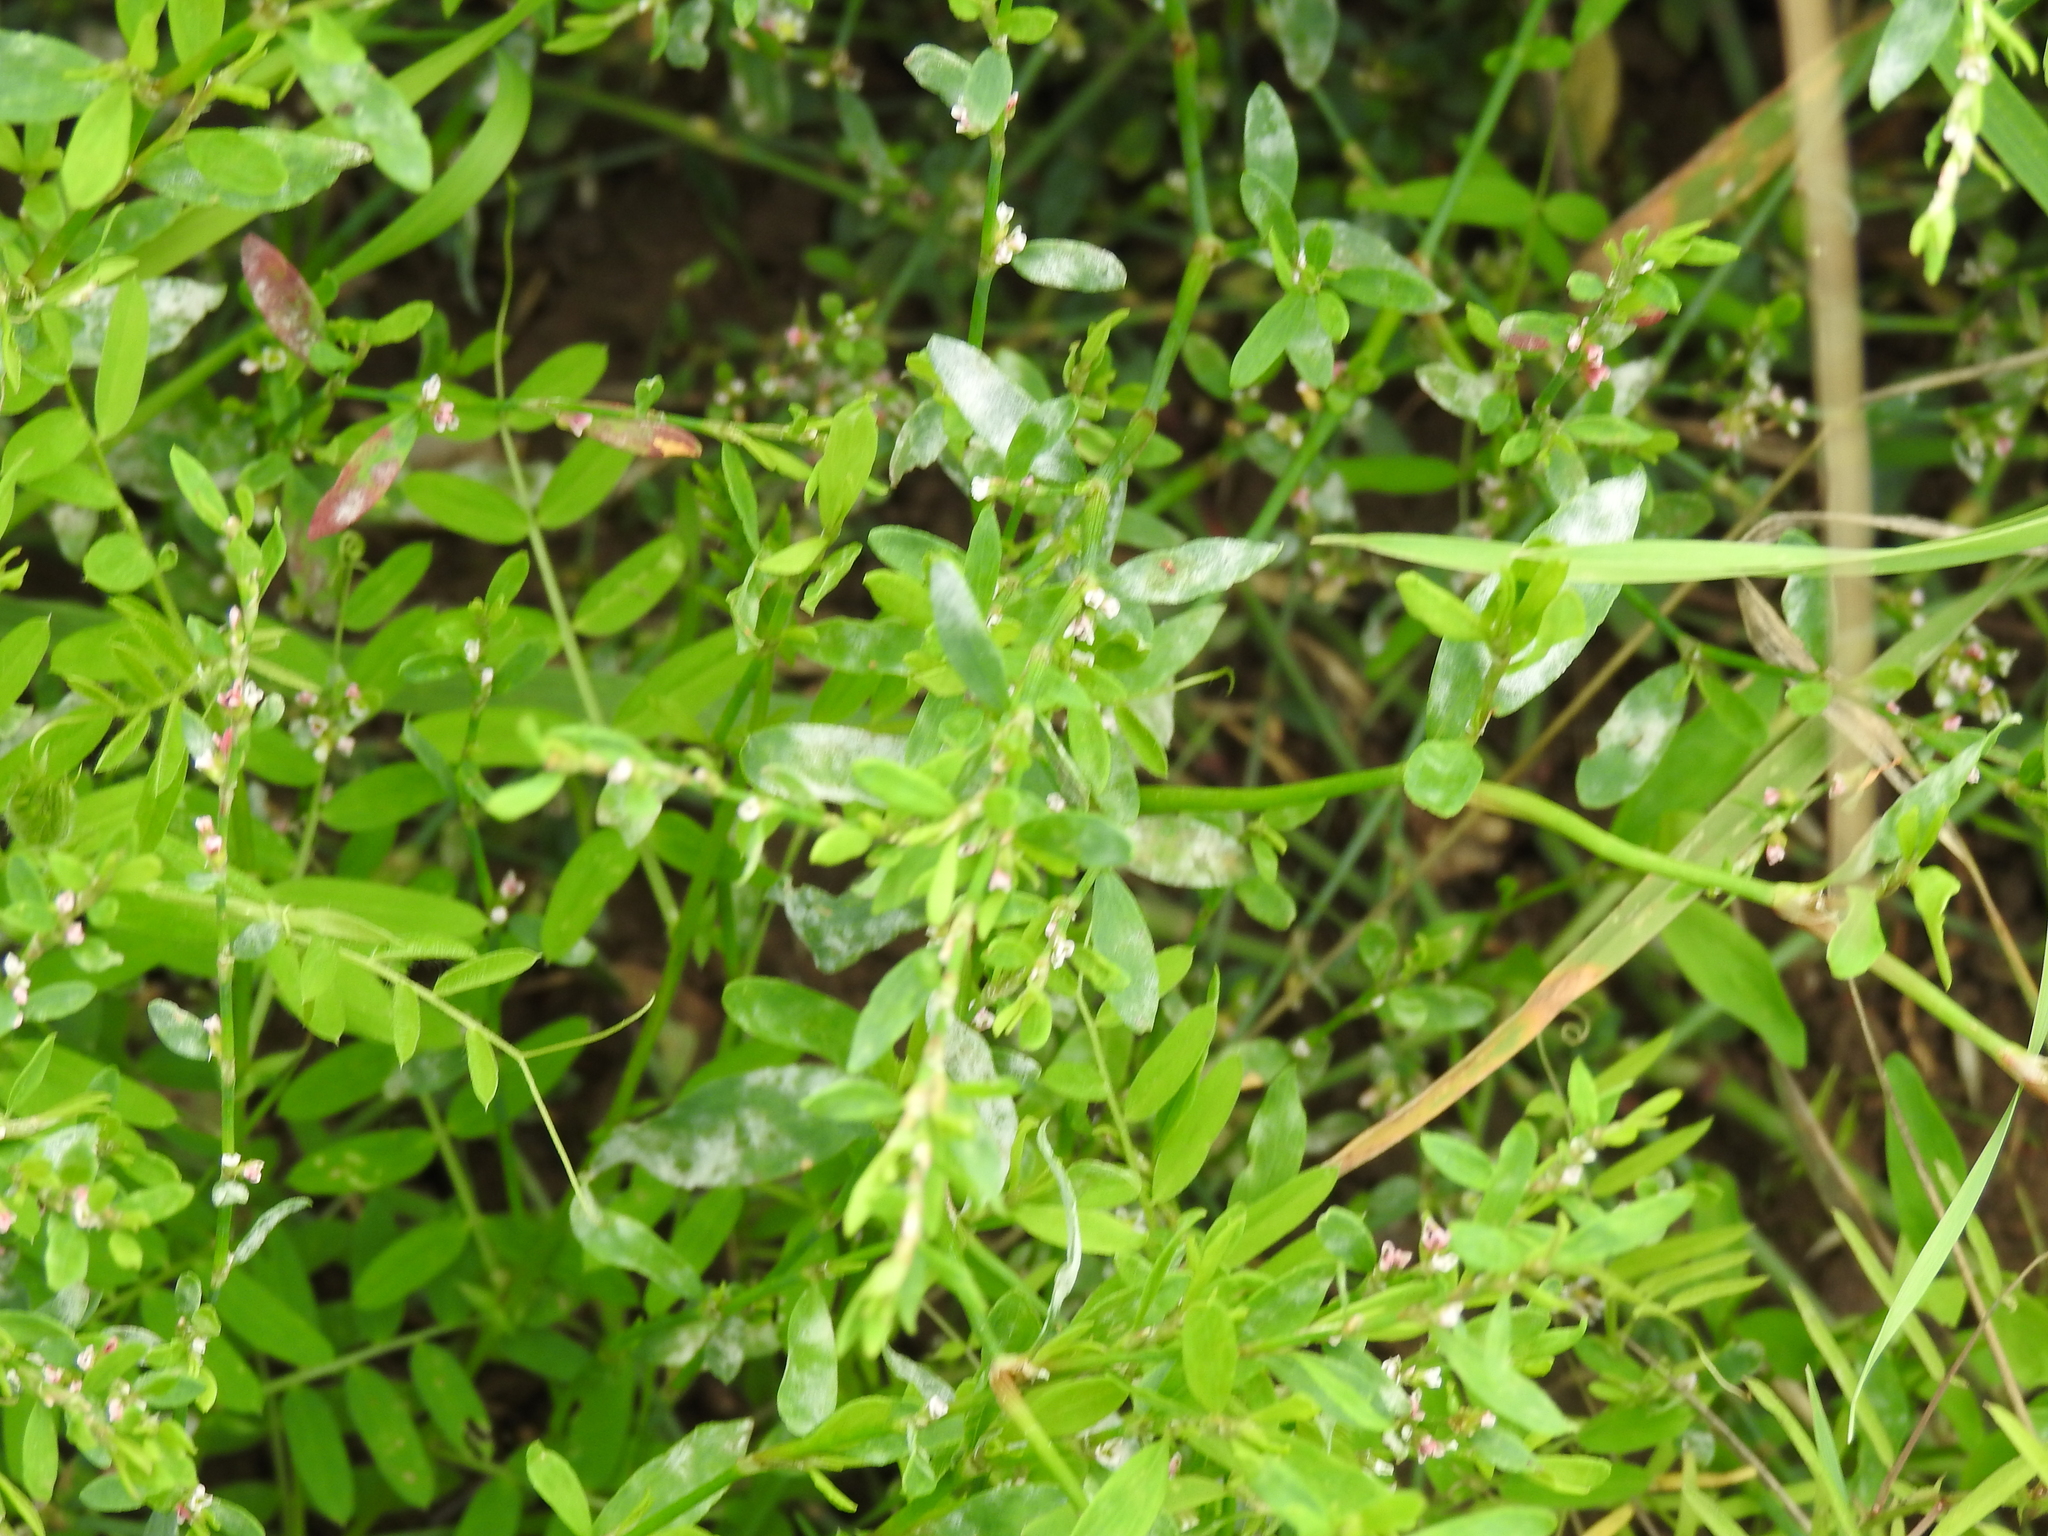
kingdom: Fungi
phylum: Ascomycota
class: Leotiomycetes
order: Helotiales
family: Erysiphaceae
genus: Erysiphe
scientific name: Erysiphe polygoni
